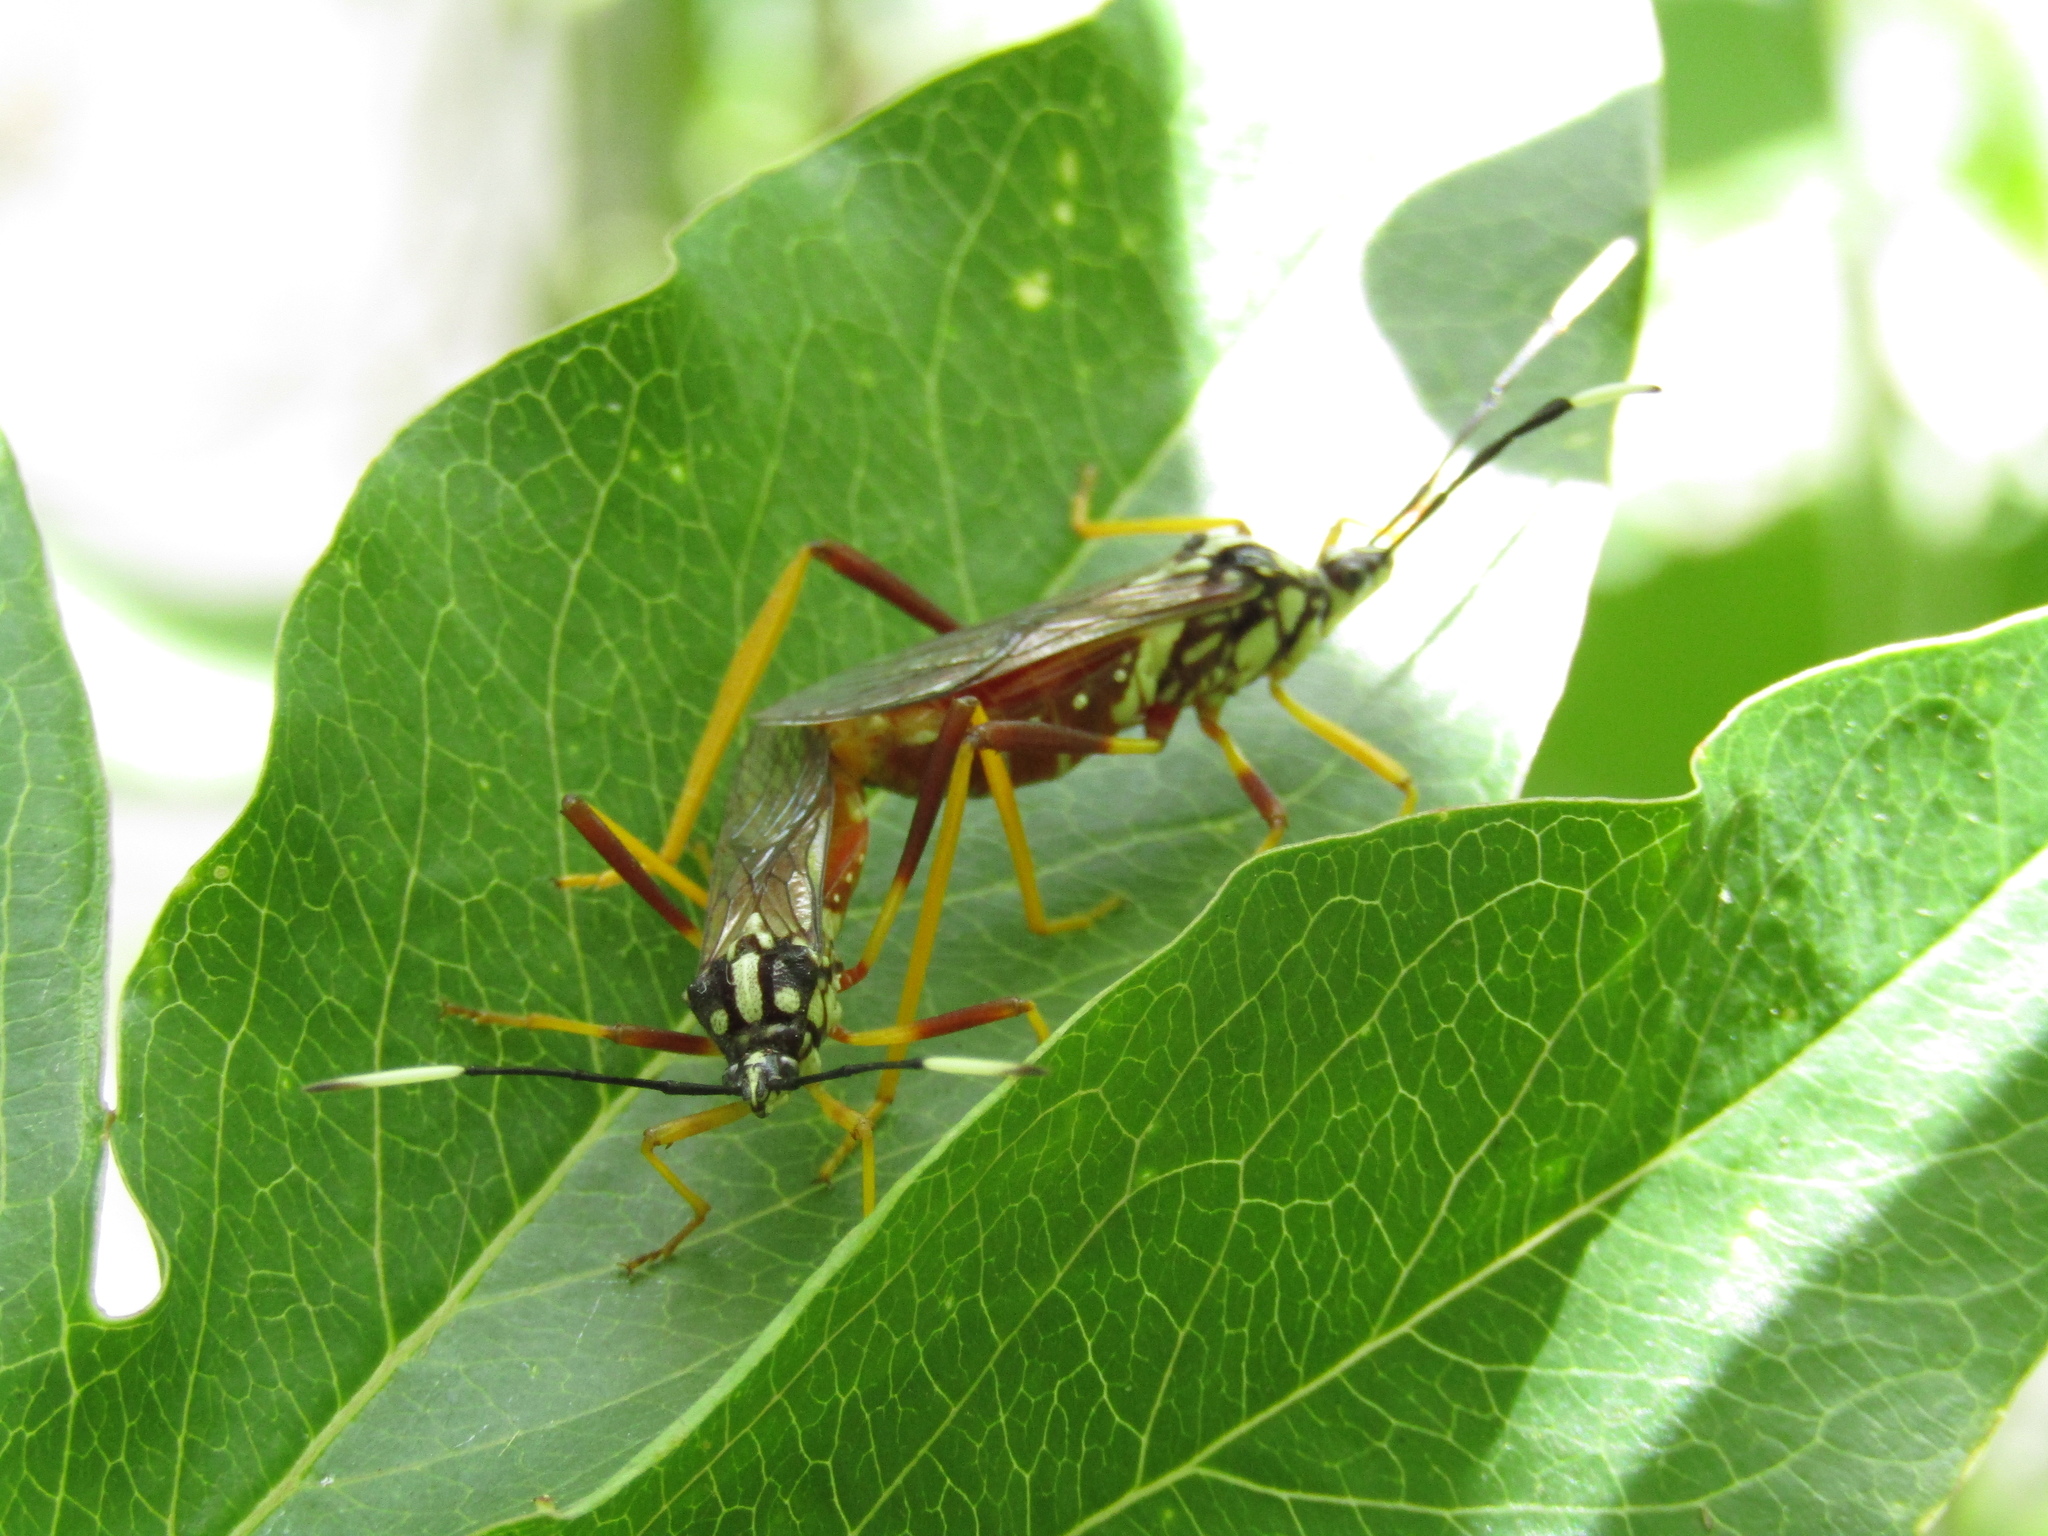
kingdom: Animalia
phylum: Arthropoda
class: Insecta
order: Hemiptera
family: Coreidae
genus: Holhymenia
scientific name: Holhymenia histrio
